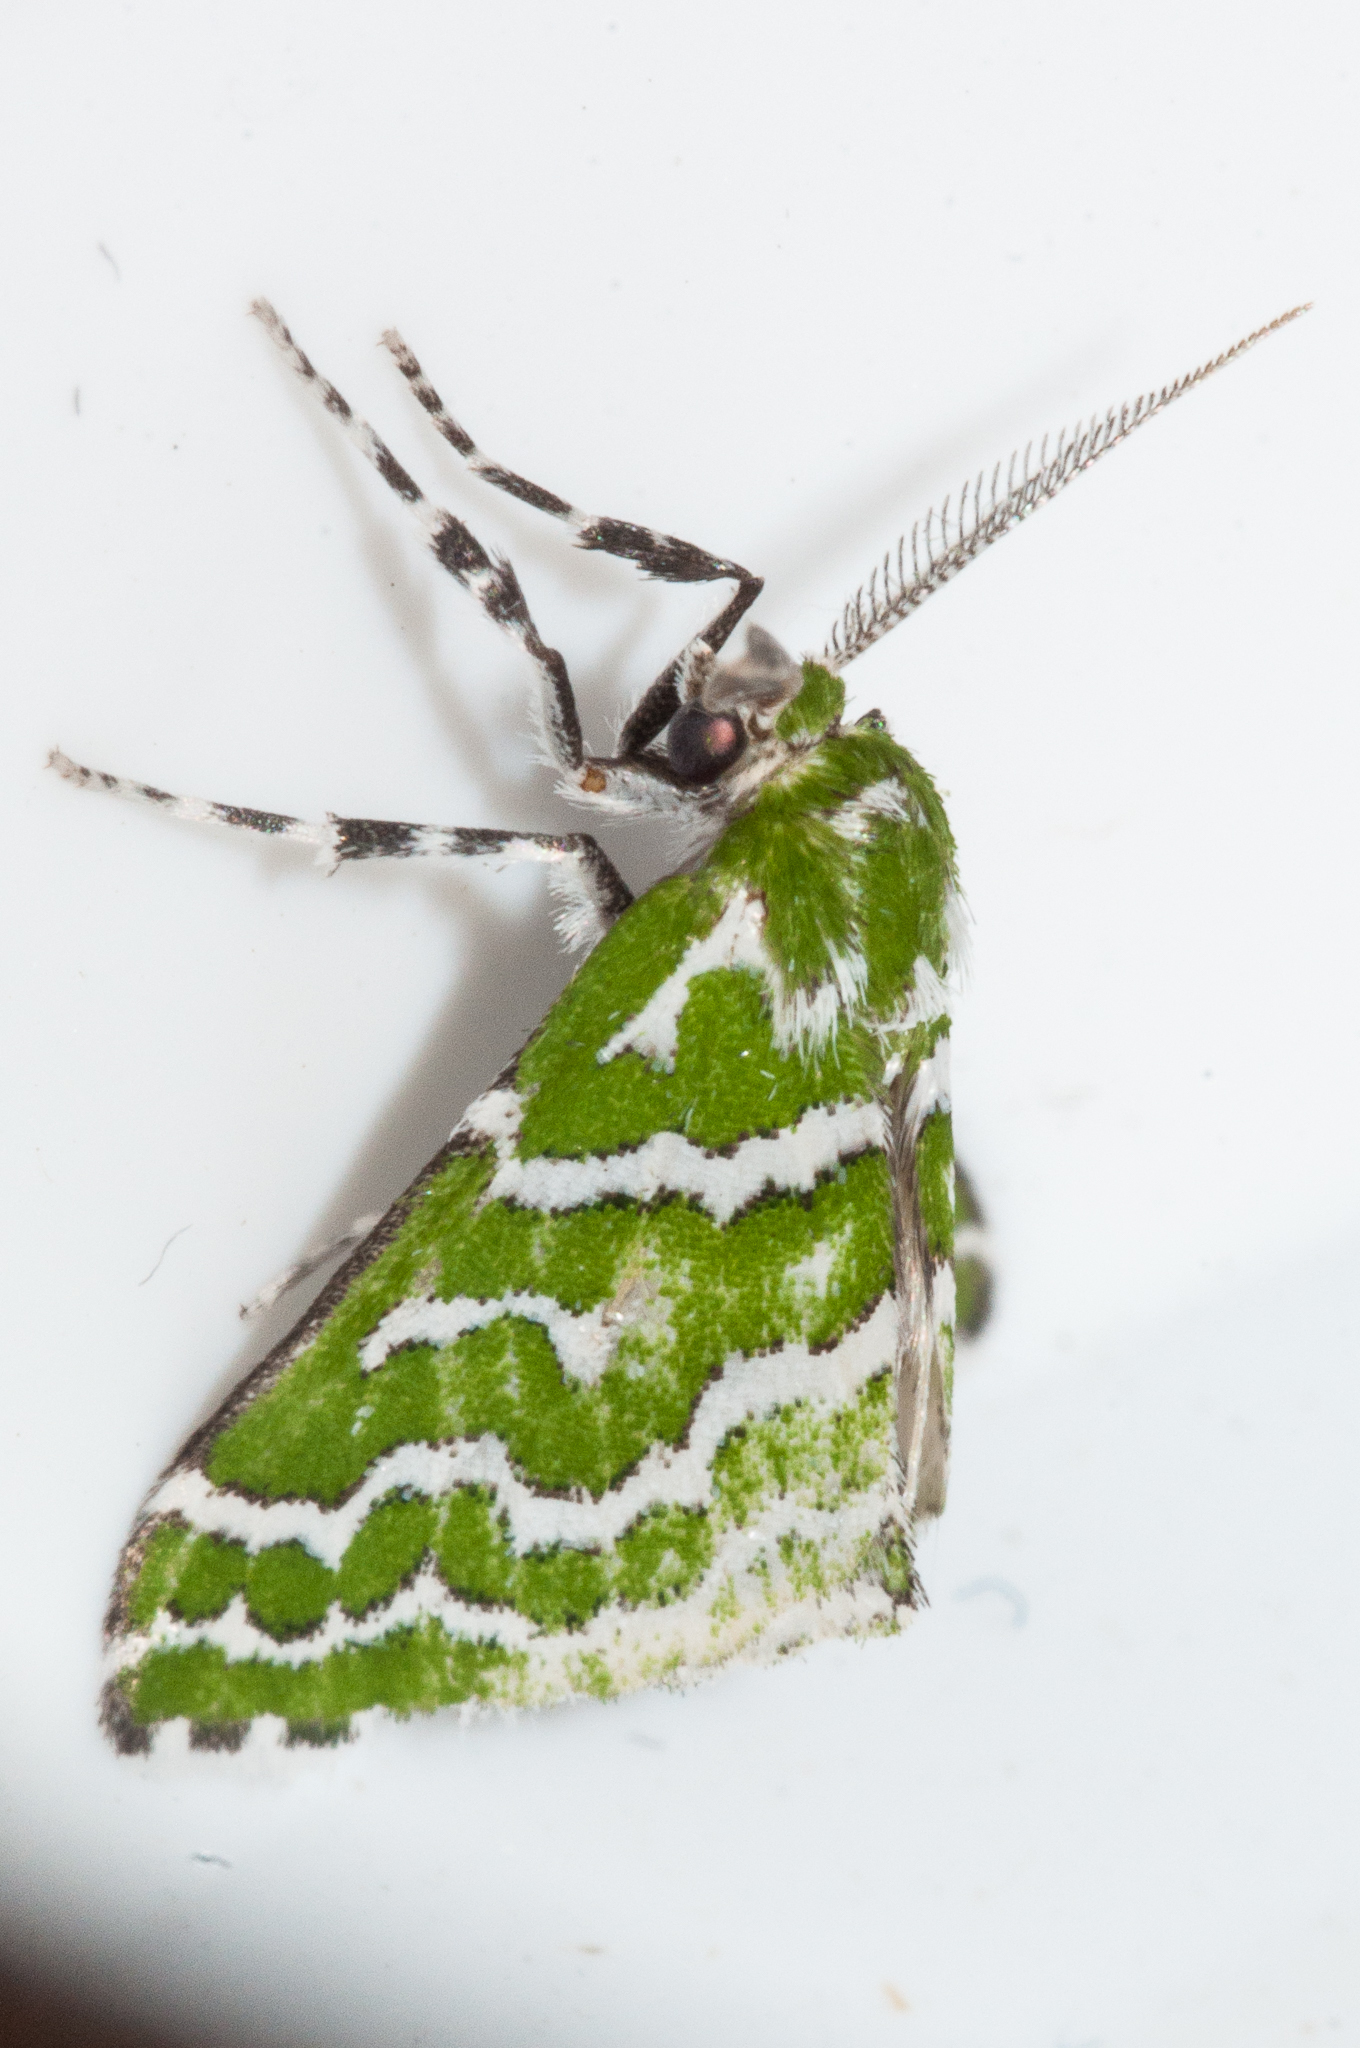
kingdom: Animalia
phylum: Arthropoda
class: Insecta
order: Lepidoptera
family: Geometridae
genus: Argyrographa
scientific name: Argyrographa moderata
